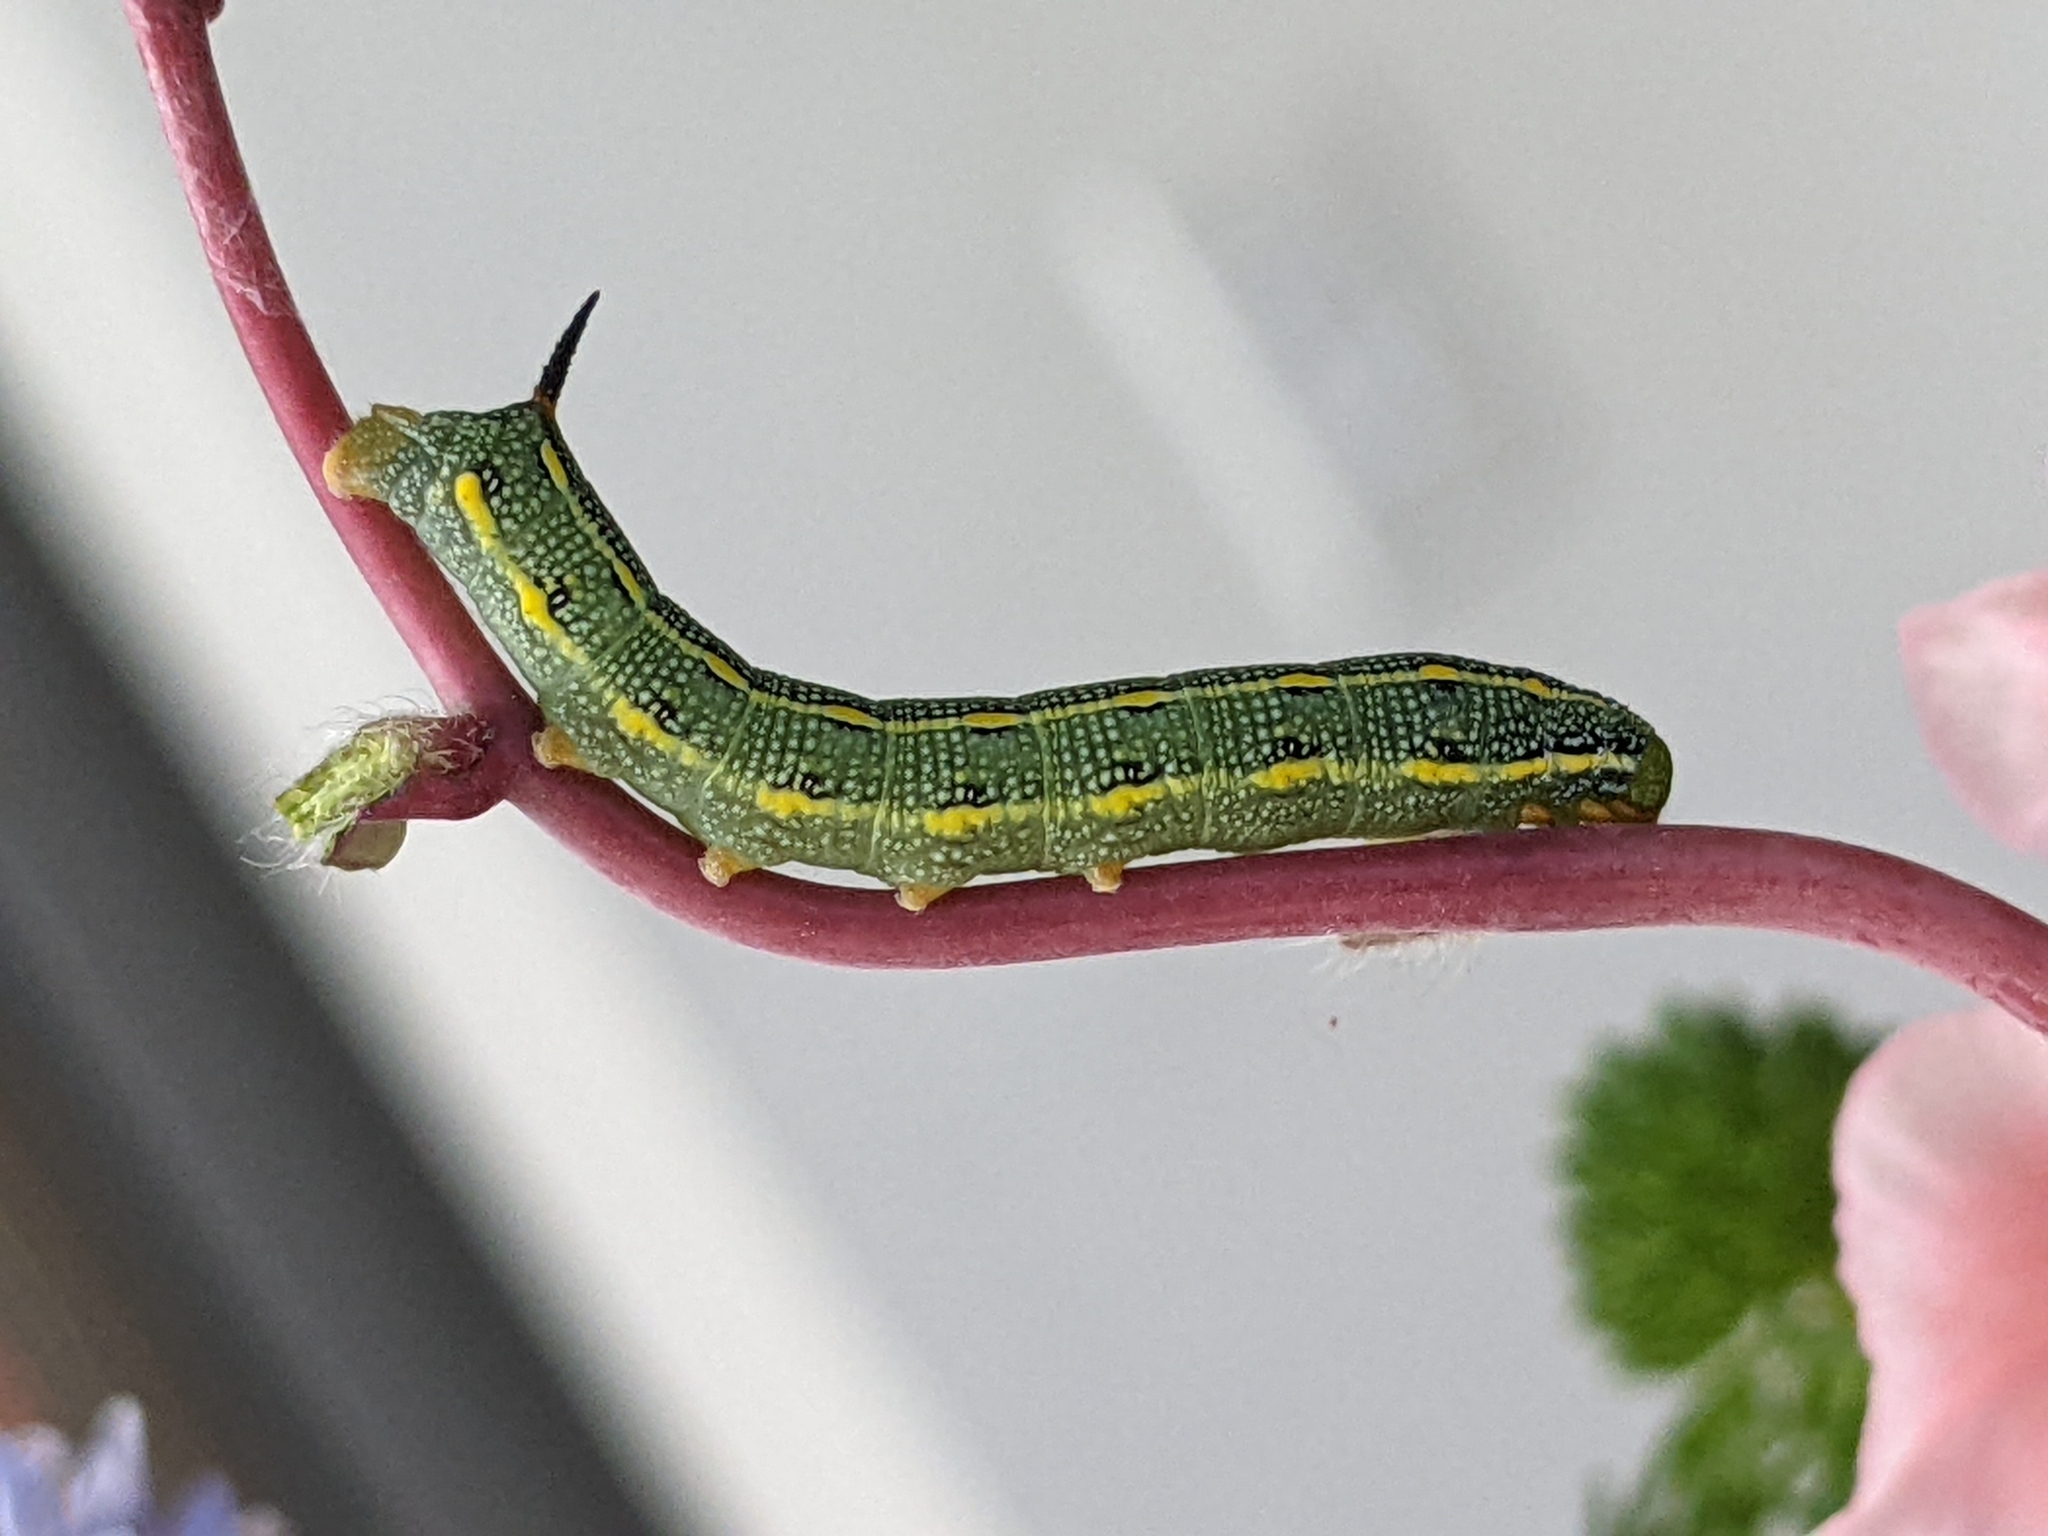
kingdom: Animalia
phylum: Arthropoda
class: Insecta
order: Lepidoptera
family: Sphingidae
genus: Hyles
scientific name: Hyles lineata
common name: White-lined sphinx
